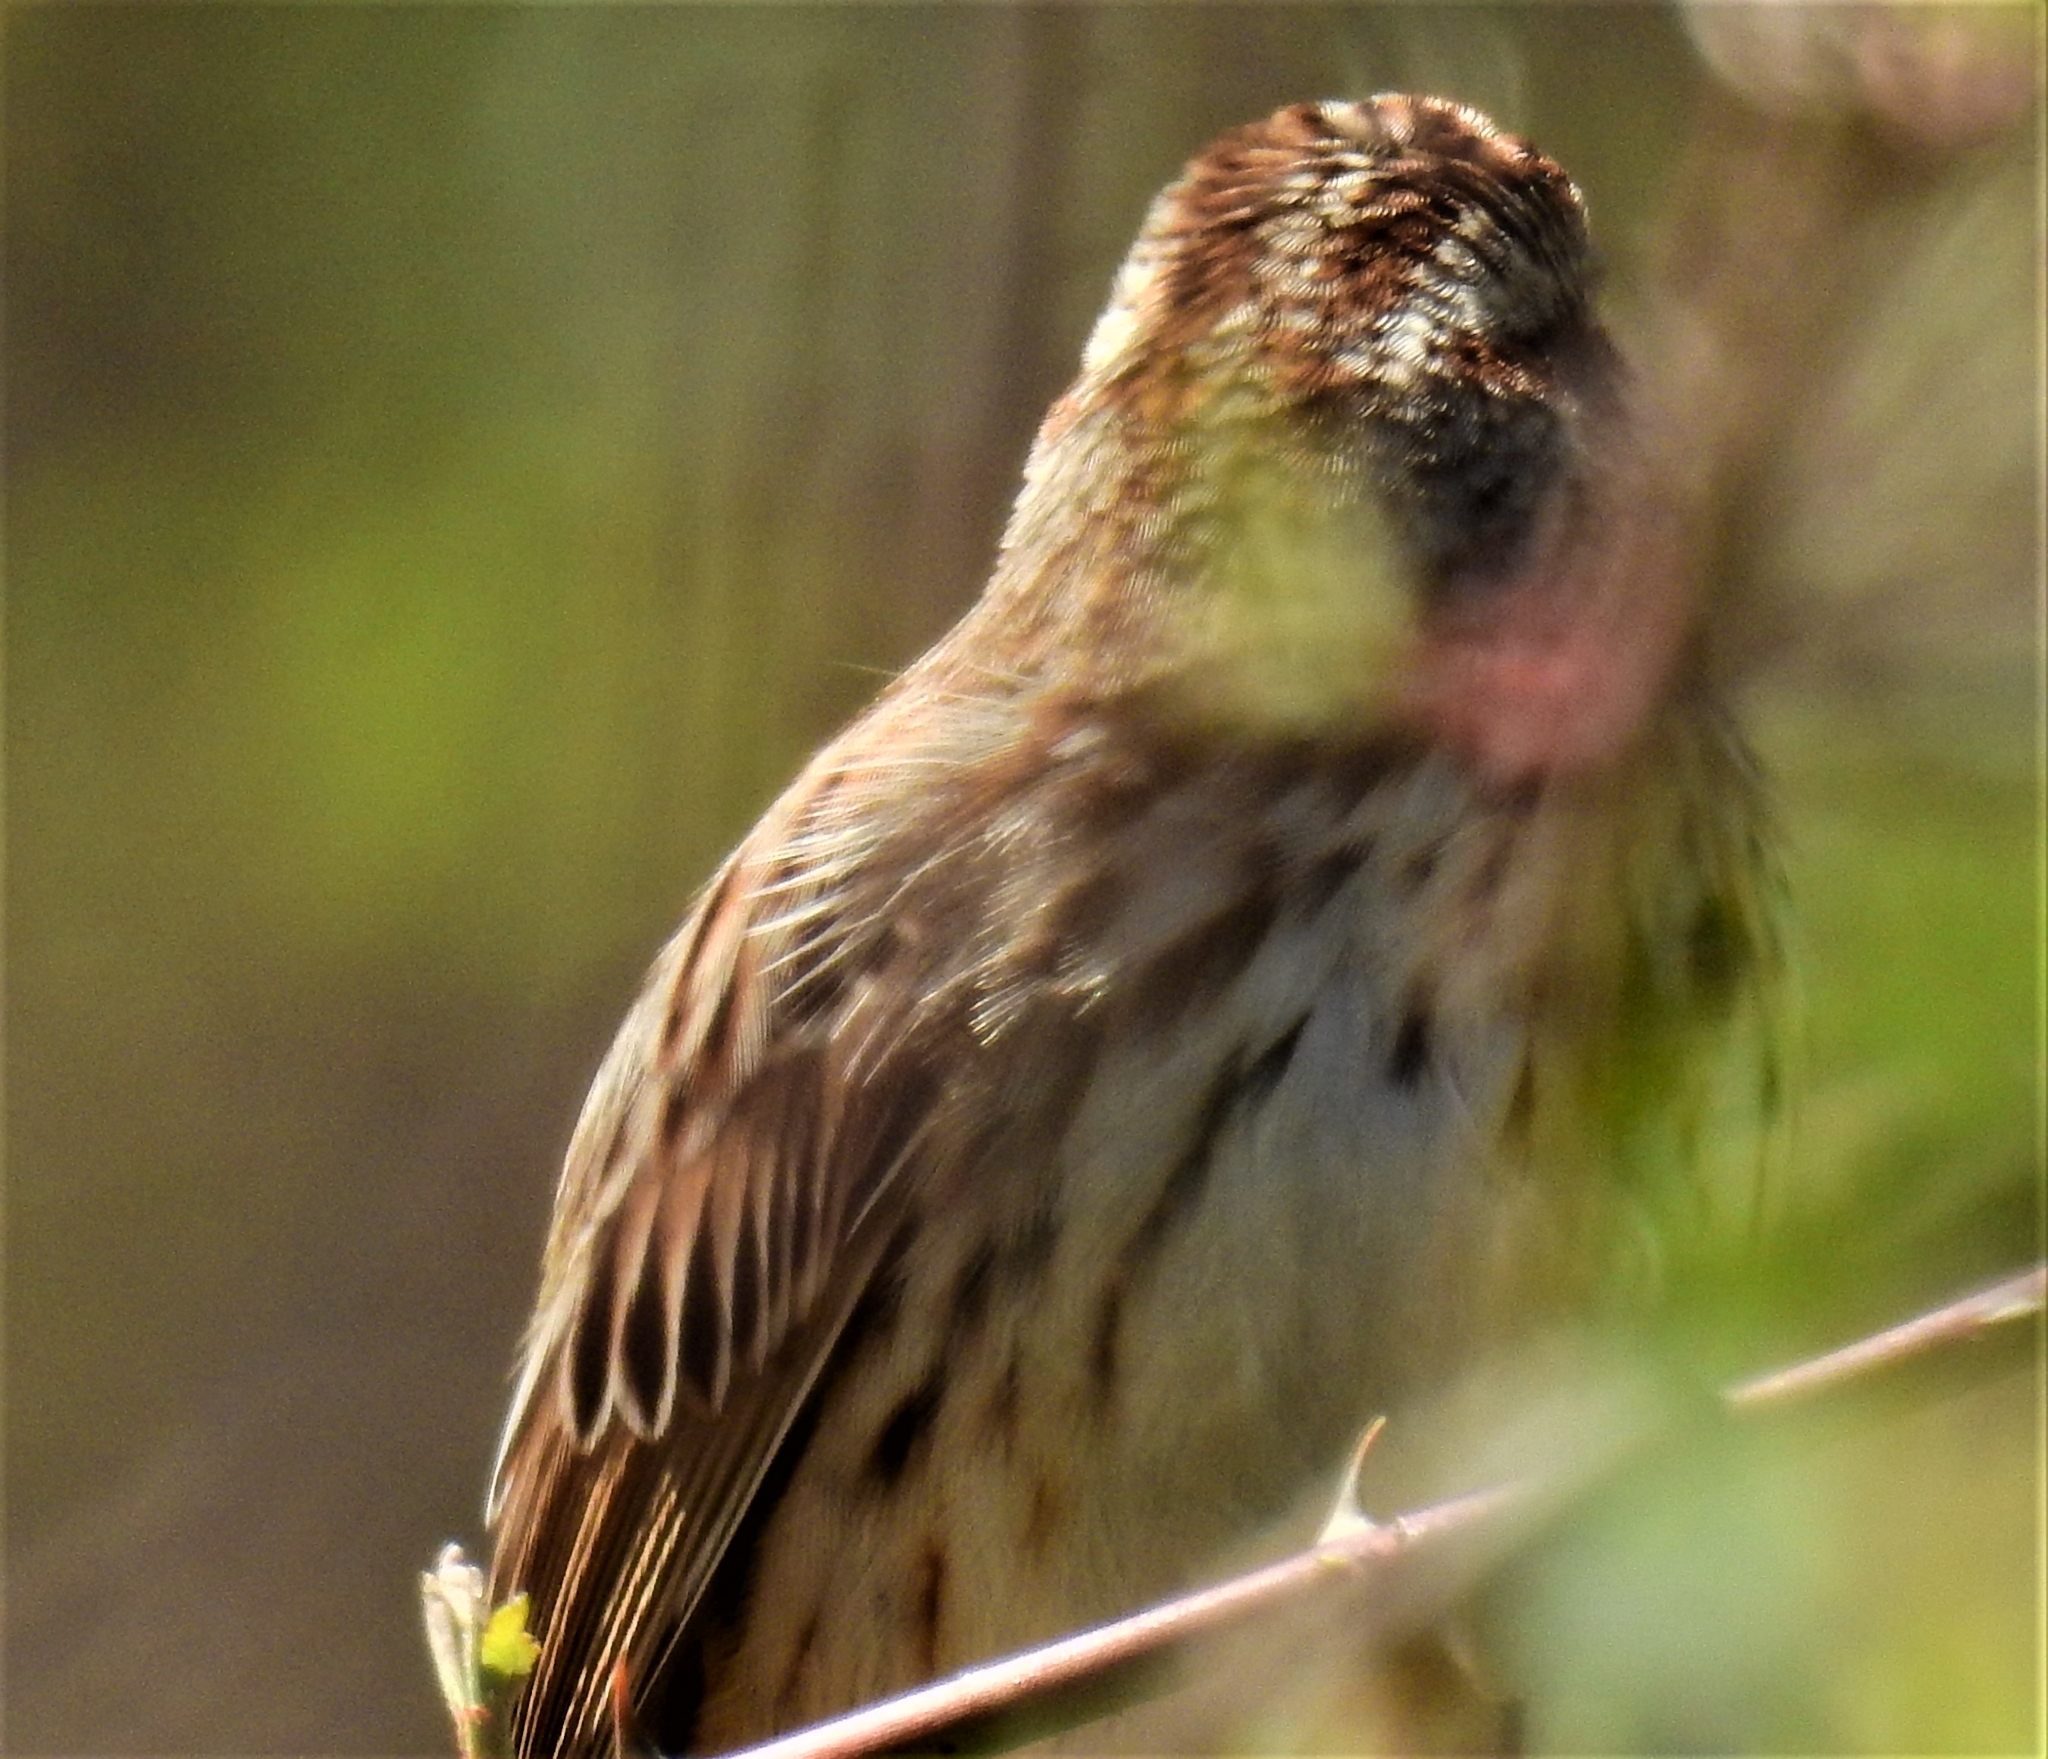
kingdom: Animalia
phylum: Chordata
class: Aves
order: Passeriformes
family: Passerellidae
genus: Melospiza
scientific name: Melospiza melodia
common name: Song sparrow
